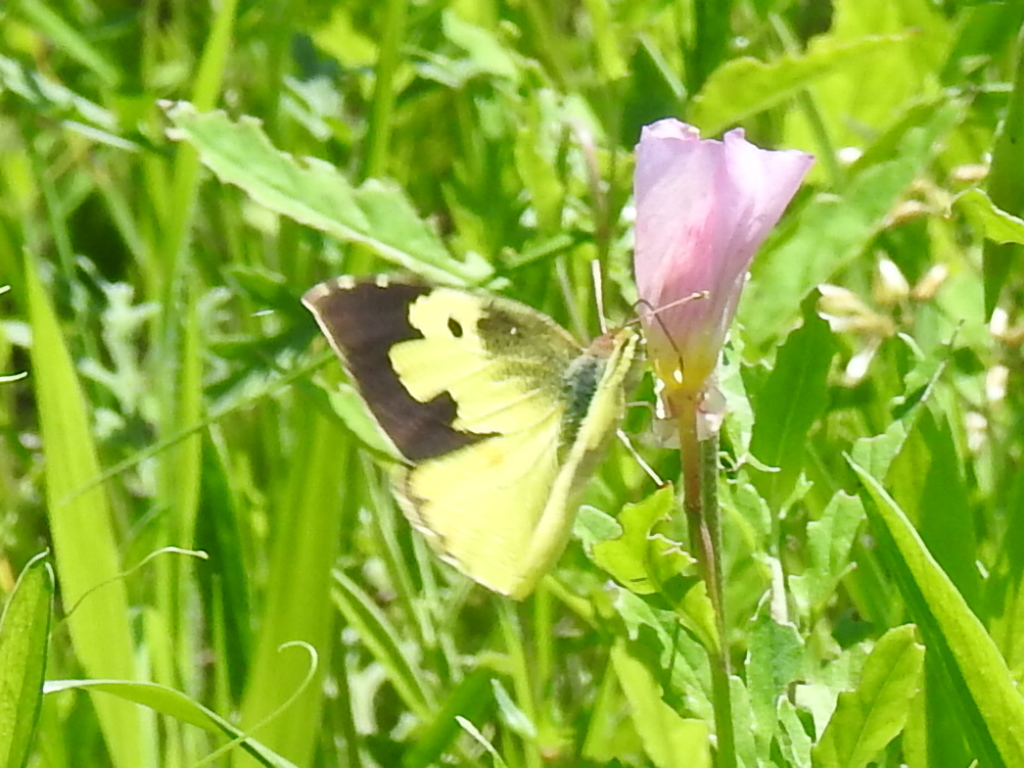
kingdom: Animalia
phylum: Arthropoda
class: Insecta
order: Lepidoptera
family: Pieridae
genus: Zerene
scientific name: Zerene cesonia
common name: Southern dogface
